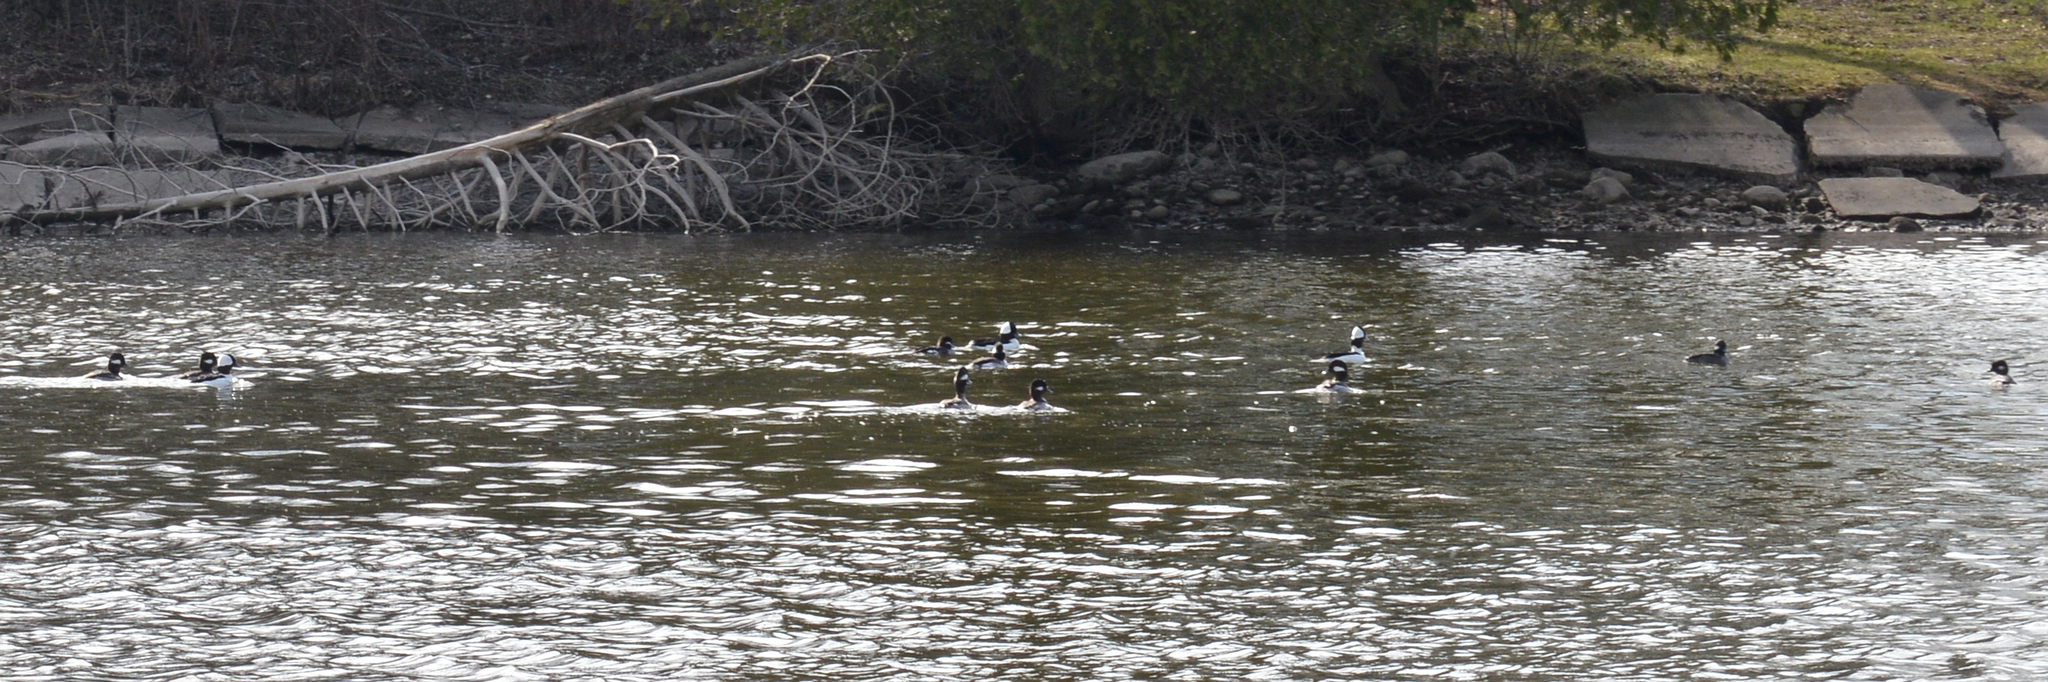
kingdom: Animalia
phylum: Chordata
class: Aves
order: Anseriformes
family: Anatidae
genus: Bucephala
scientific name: Bucephala albeola
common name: Bufflehead
